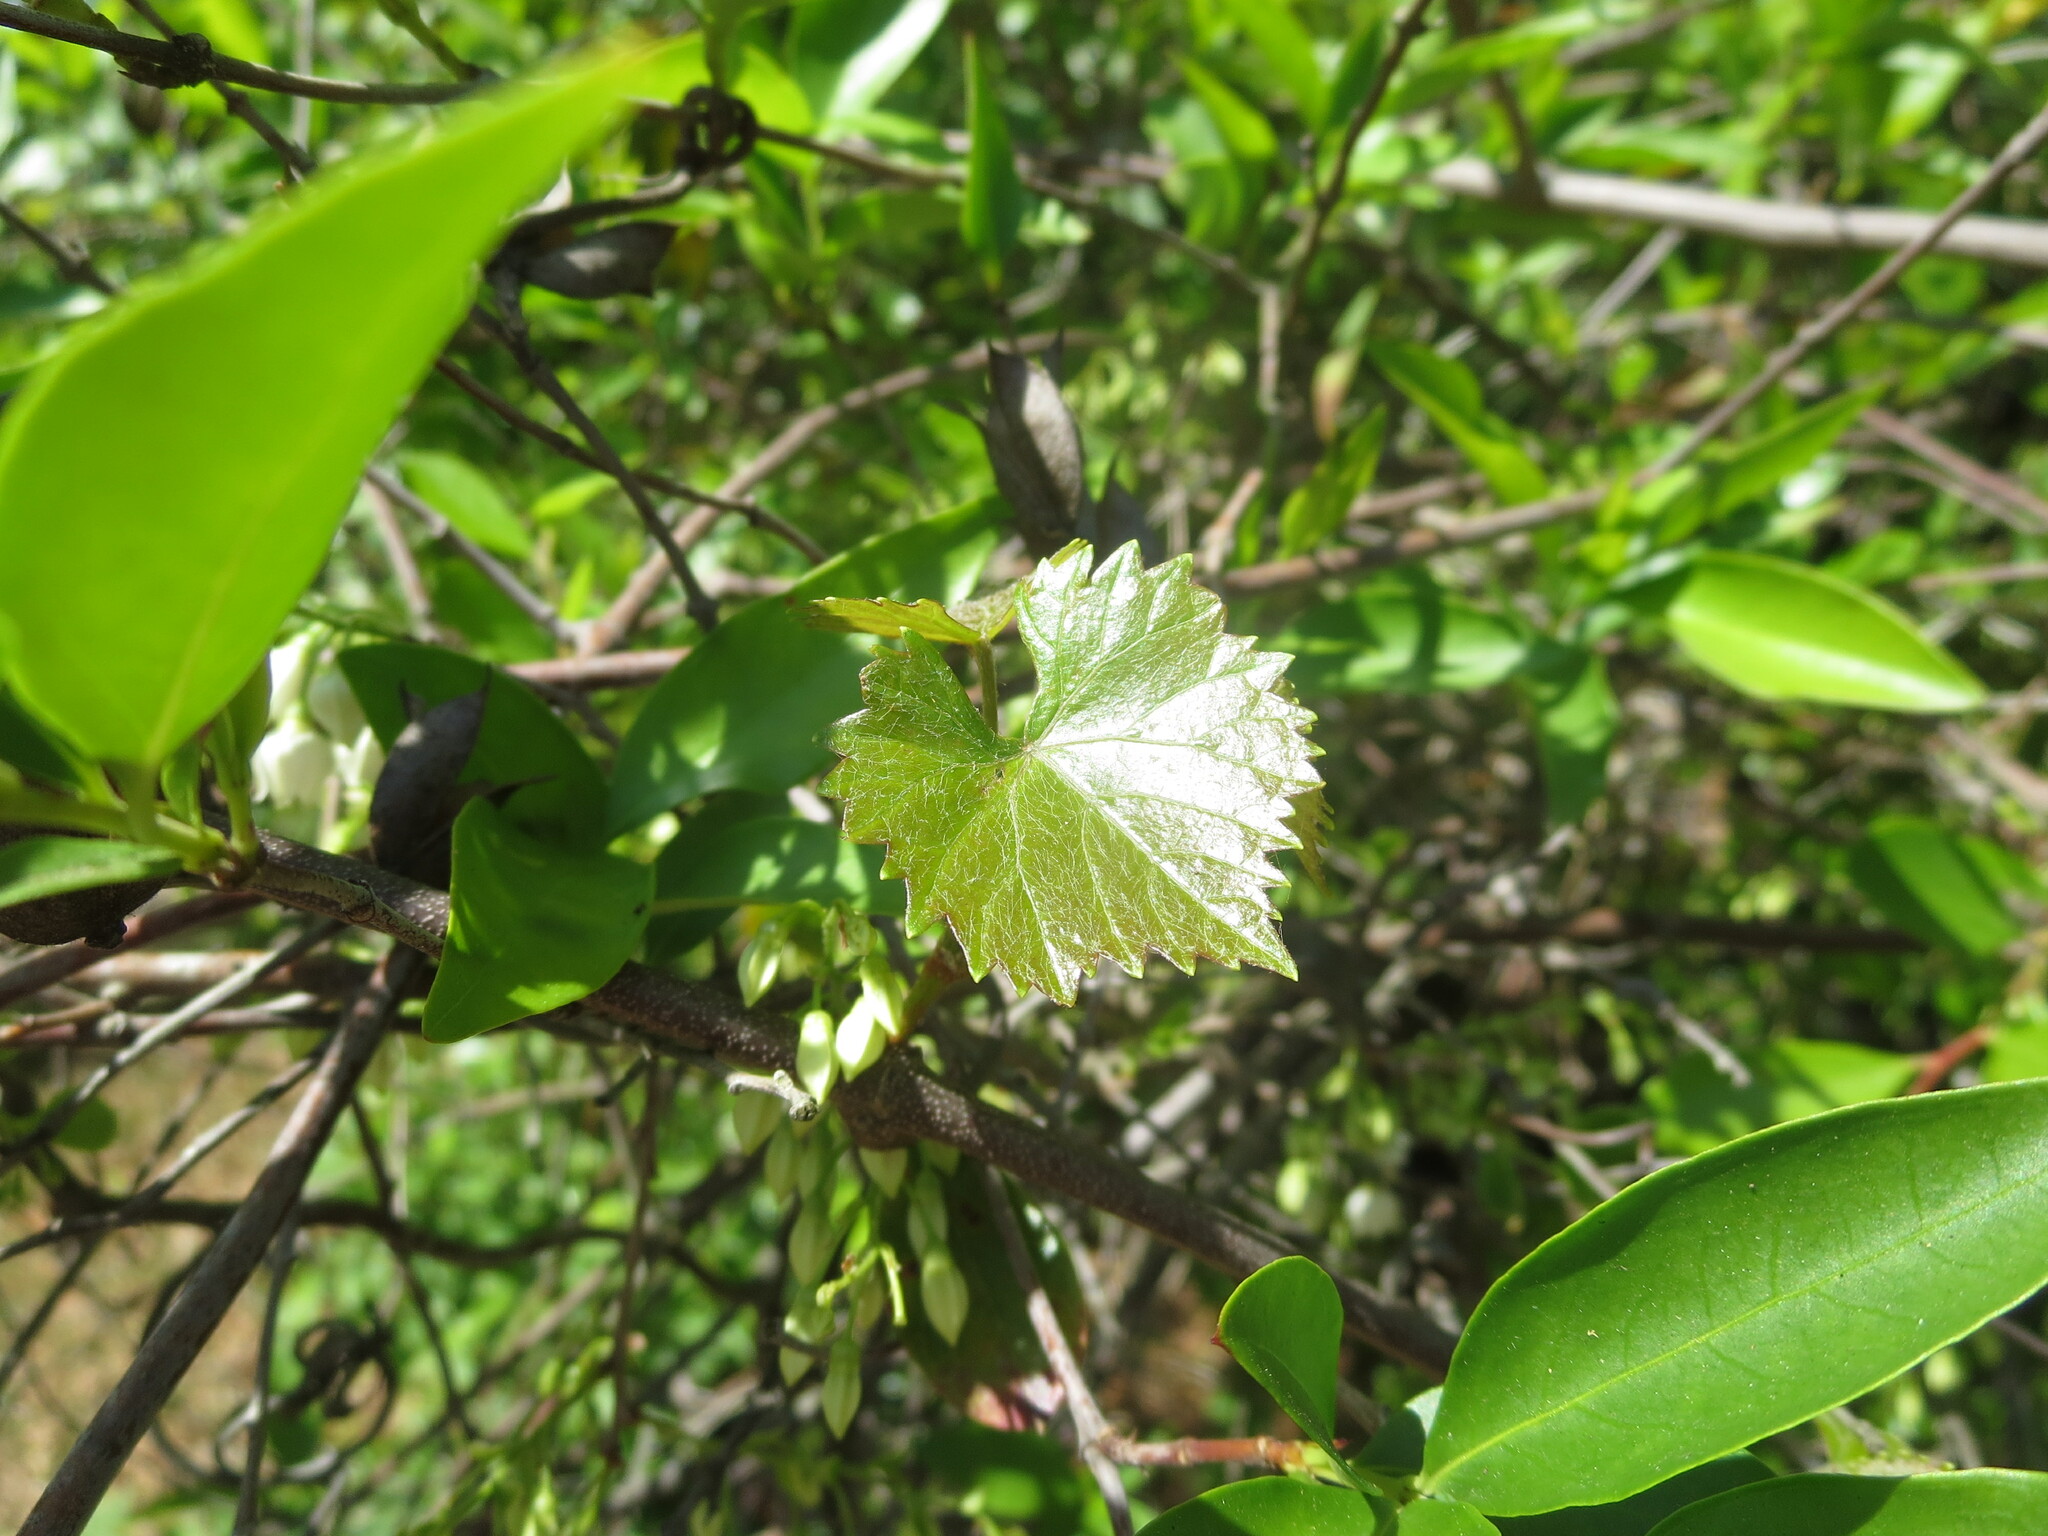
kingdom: Plantae
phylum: Tracheophyta
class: Magnoliopsida
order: Vitales
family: Vitaceae
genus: Vitis
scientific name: Vitis rotundifolia
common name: Muscadine grape
